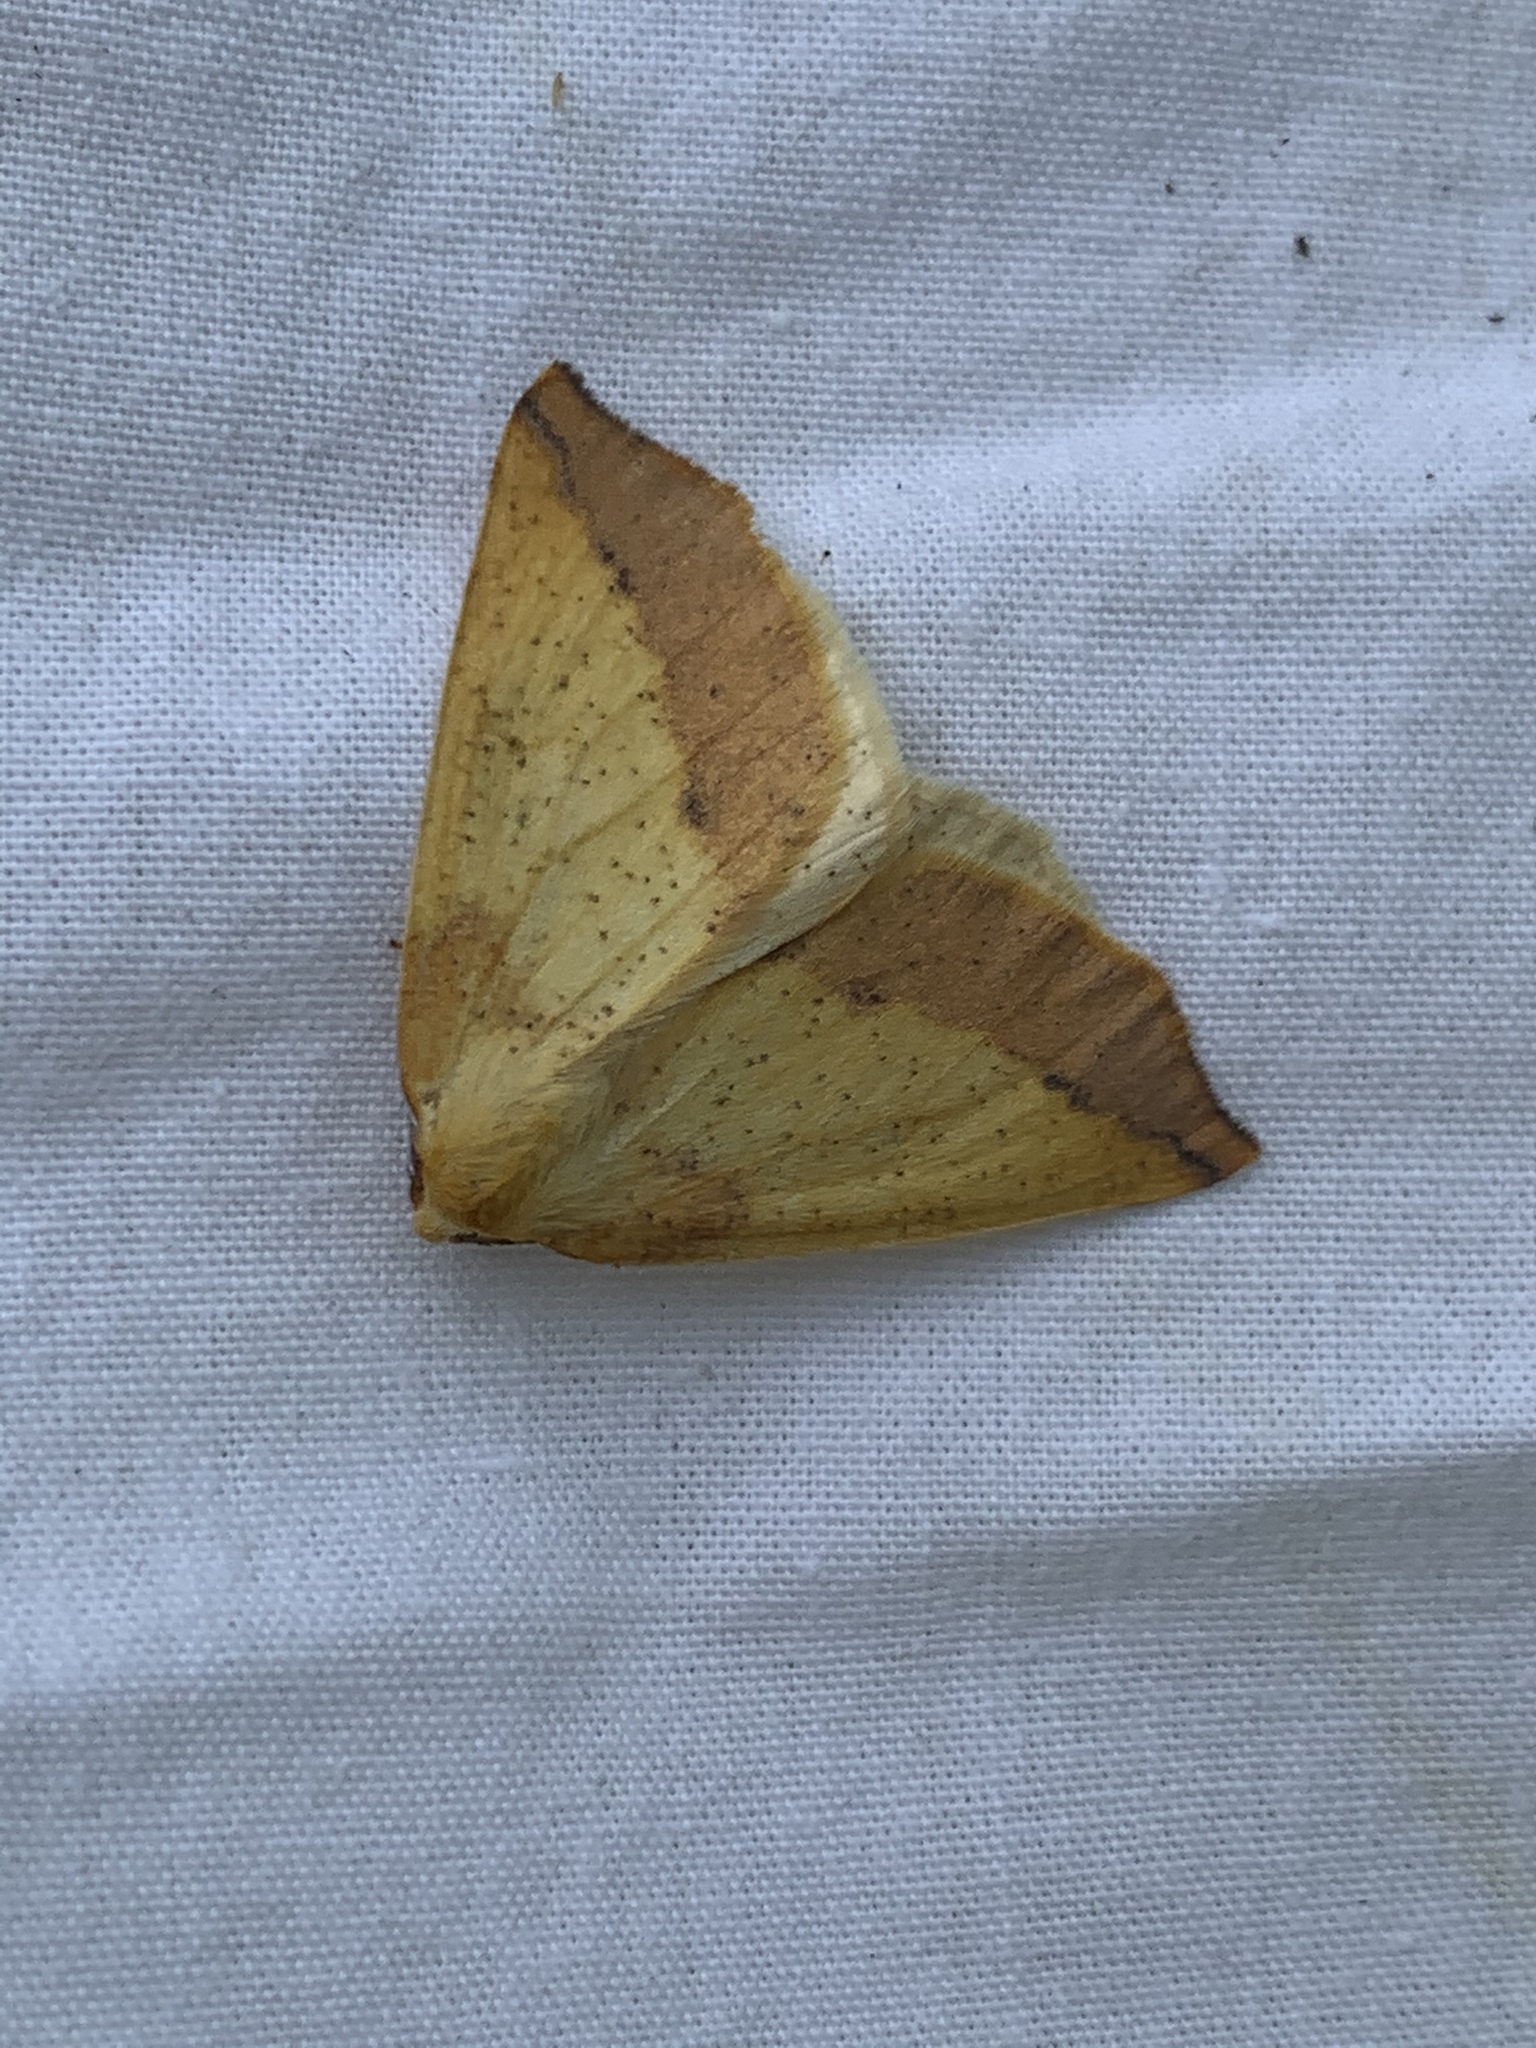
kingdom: Animalia
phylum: Arthropoda
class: Insecta
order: Lepidoptera
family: Geometridae
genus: Neoterpes
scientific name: Neoterpes edwardsata
